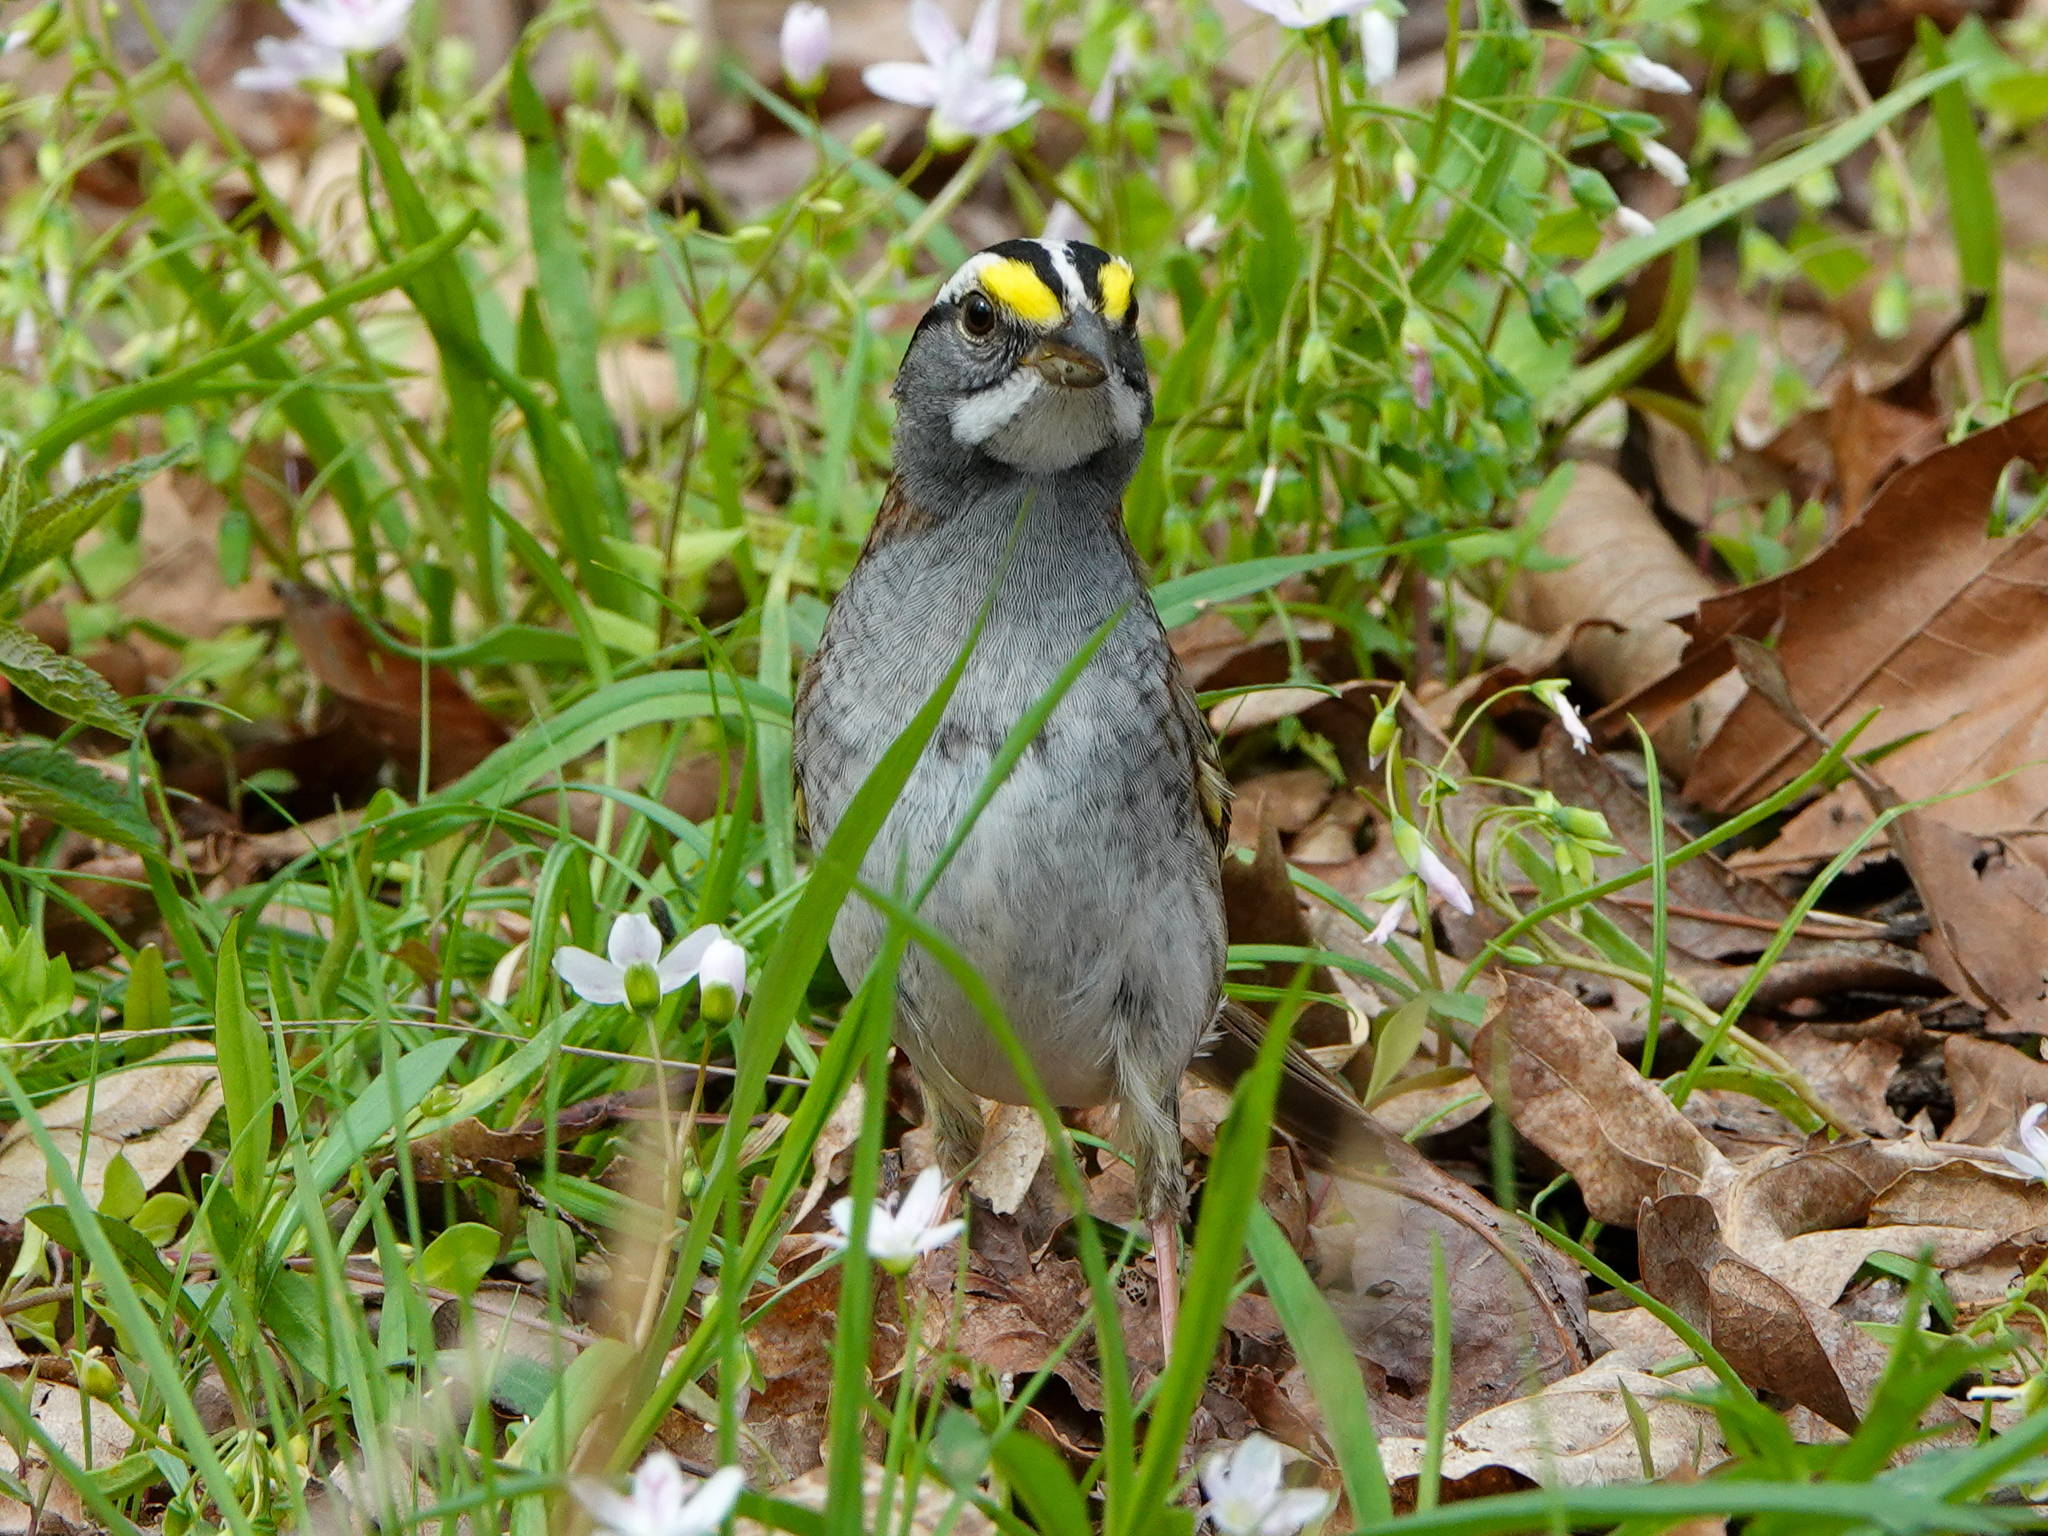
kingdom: Animalia
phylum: Chordata
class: Aves
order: Passeriformes
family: Passerellidae
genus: Zonotrichia
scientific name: Zonotrichia albicollis
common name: White-throated sparrow
